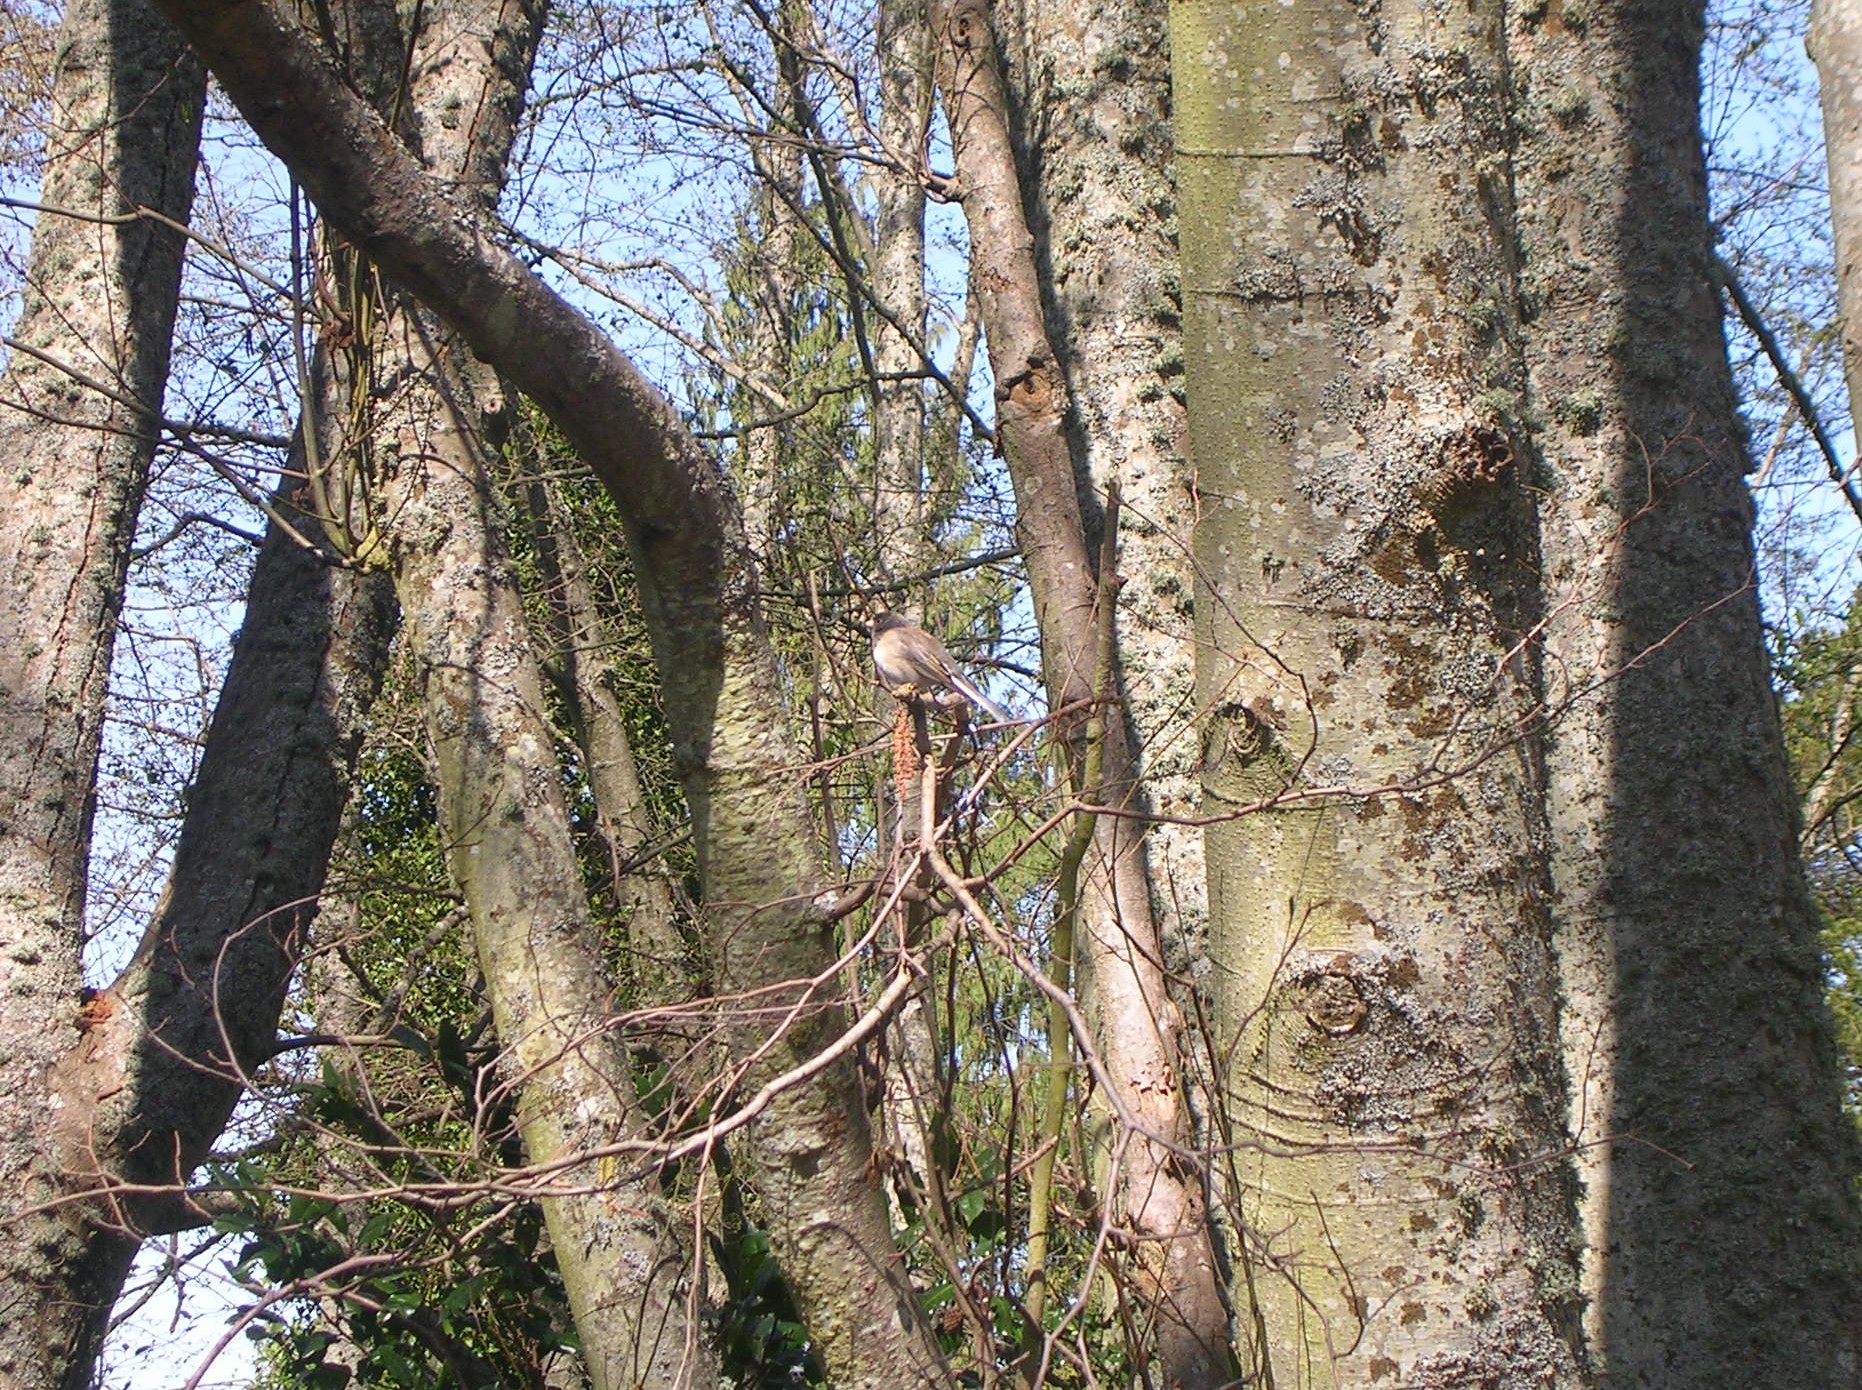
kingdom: Animalia
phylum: Chordata
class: Aves
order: Passeriformes
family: Passerellidae
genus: Junco
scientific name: Junco hyemalis
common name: Dark-eyed junco
